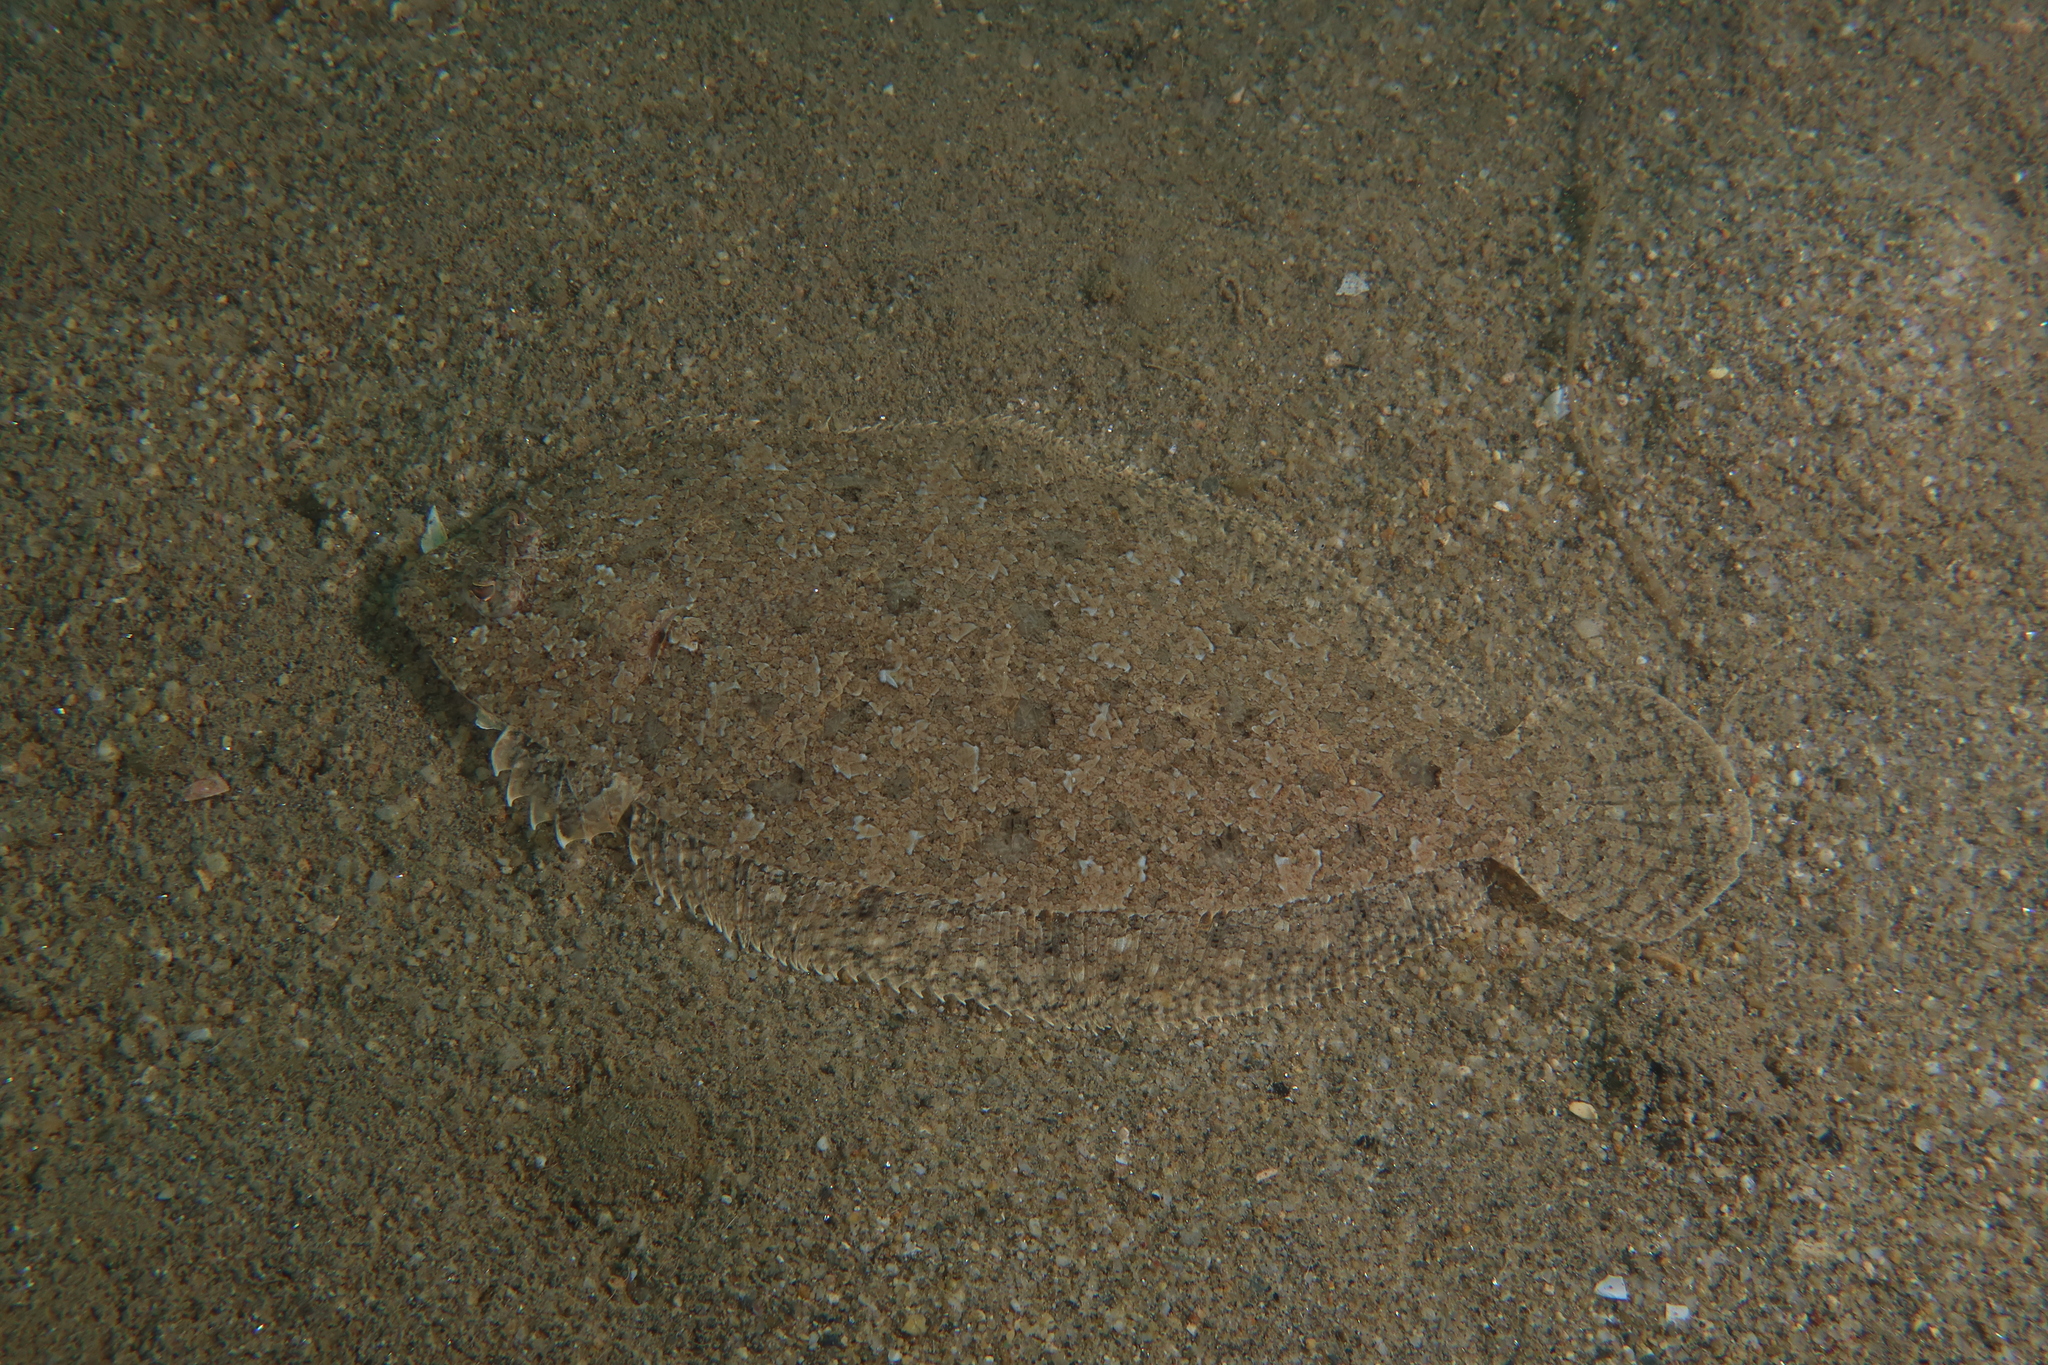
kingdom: Animalia
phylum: Chordata
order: Pleuronectiformes
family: Bothidae
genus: Arnoglossus
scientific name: Arnoglossus thori
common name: Thor's scaldfish
